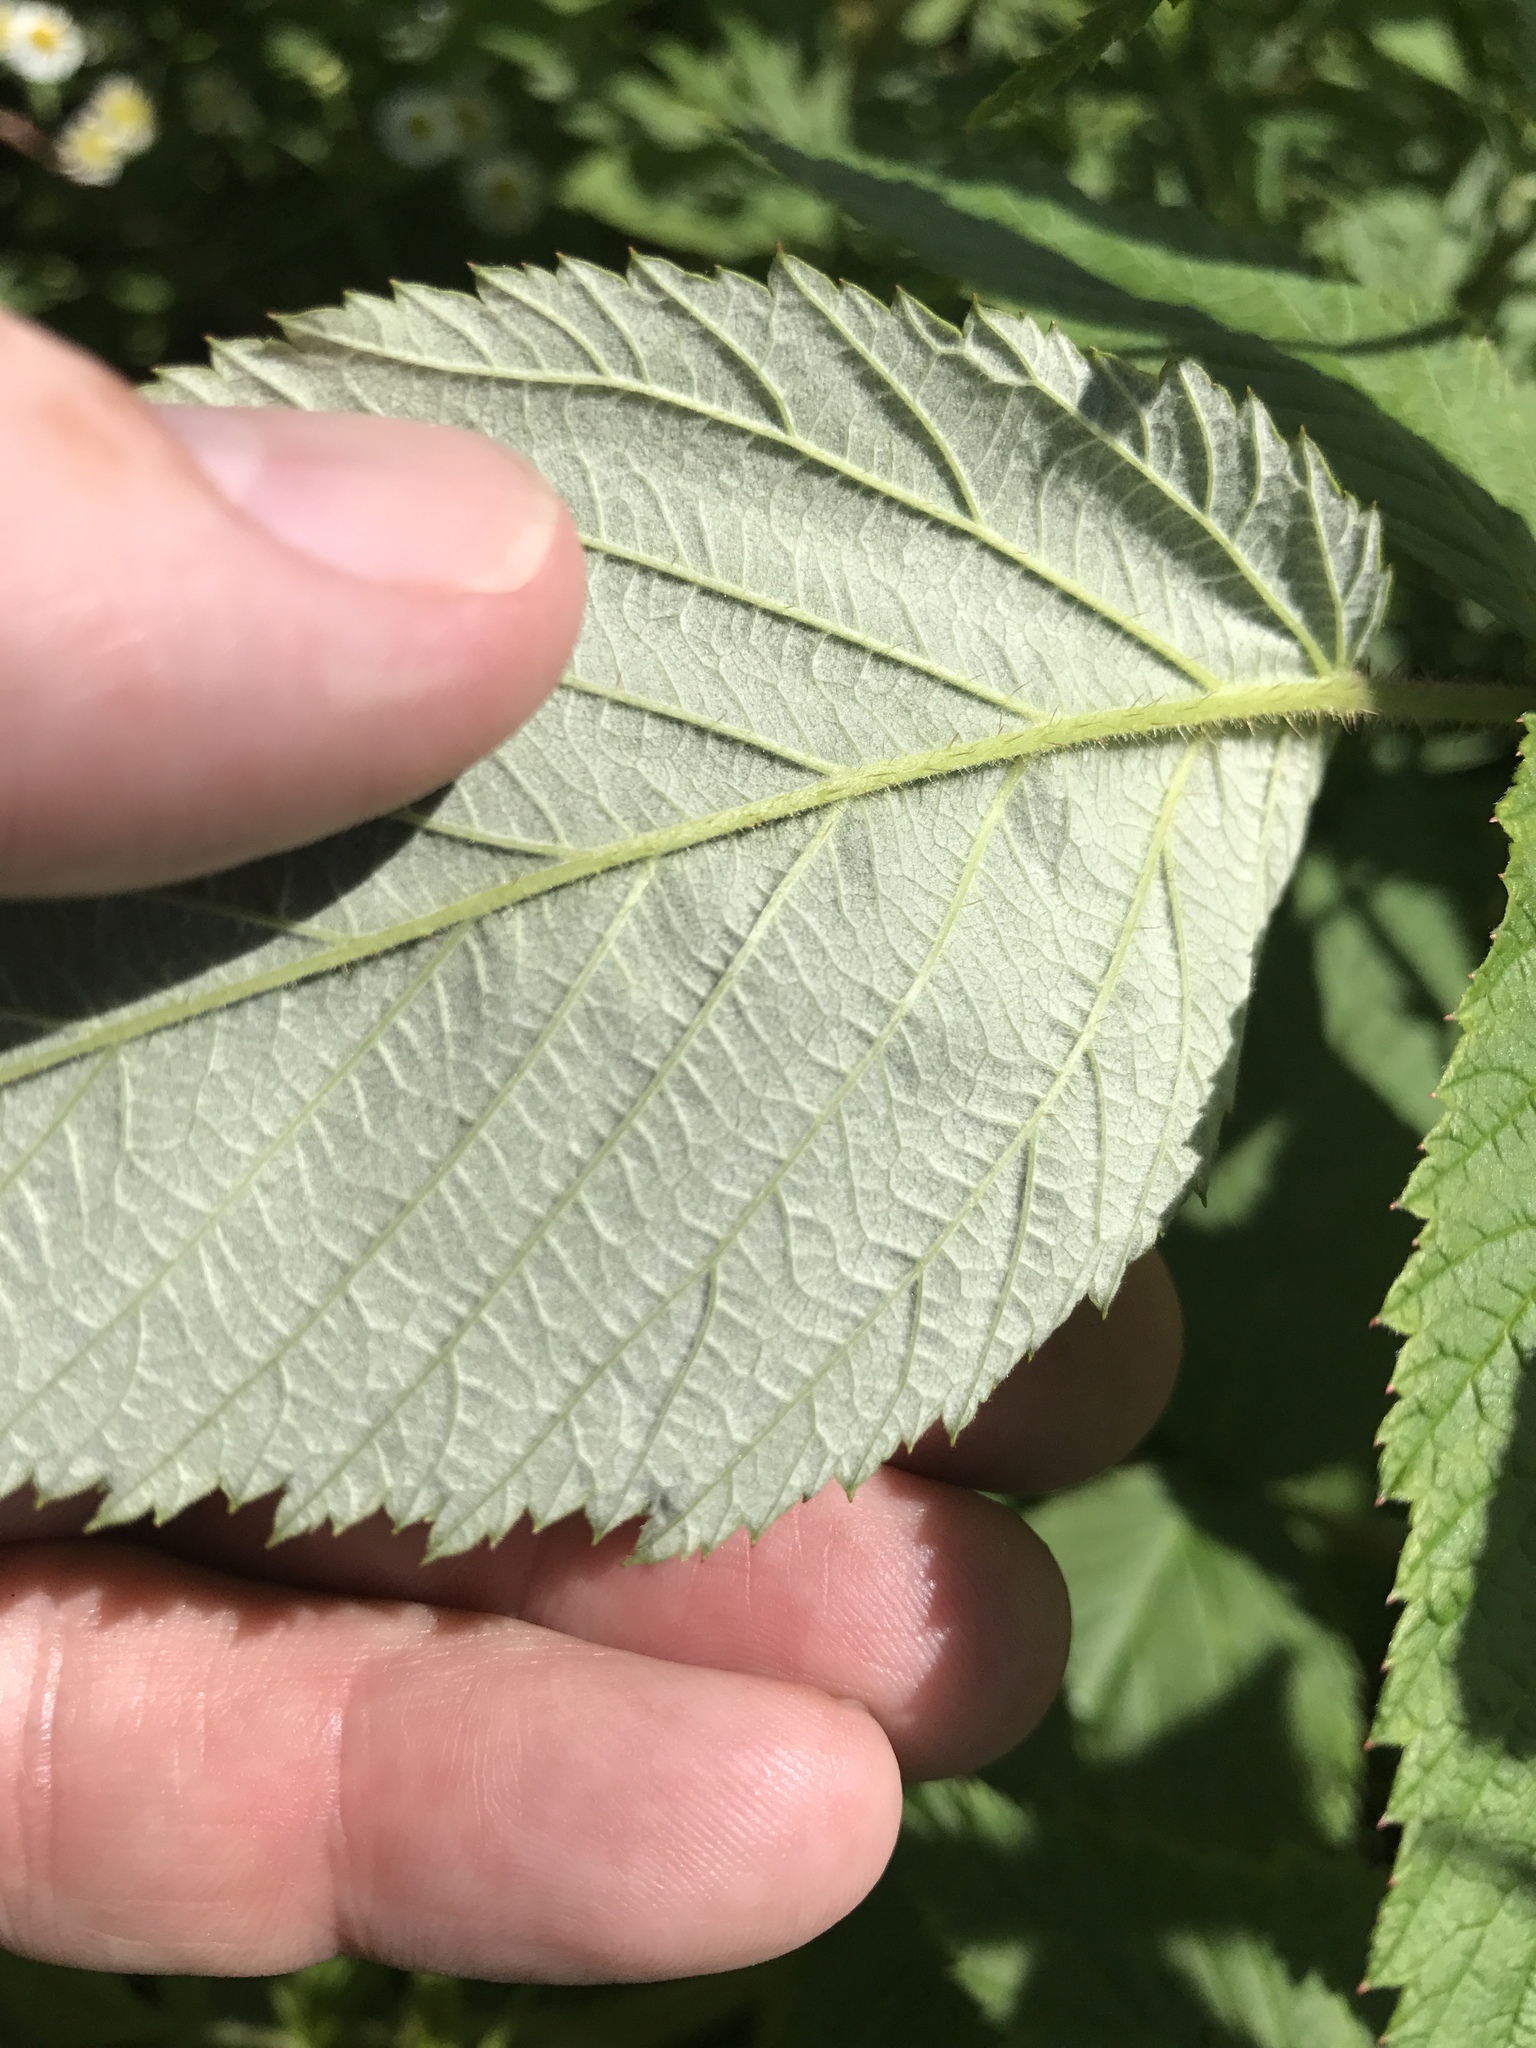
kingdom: Plantae
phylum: Tracheophyta
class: Magnoliopsida
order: Rosales
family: Rosaceae
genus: Rubus
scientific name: Rubus idaeus
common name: Raspberry
